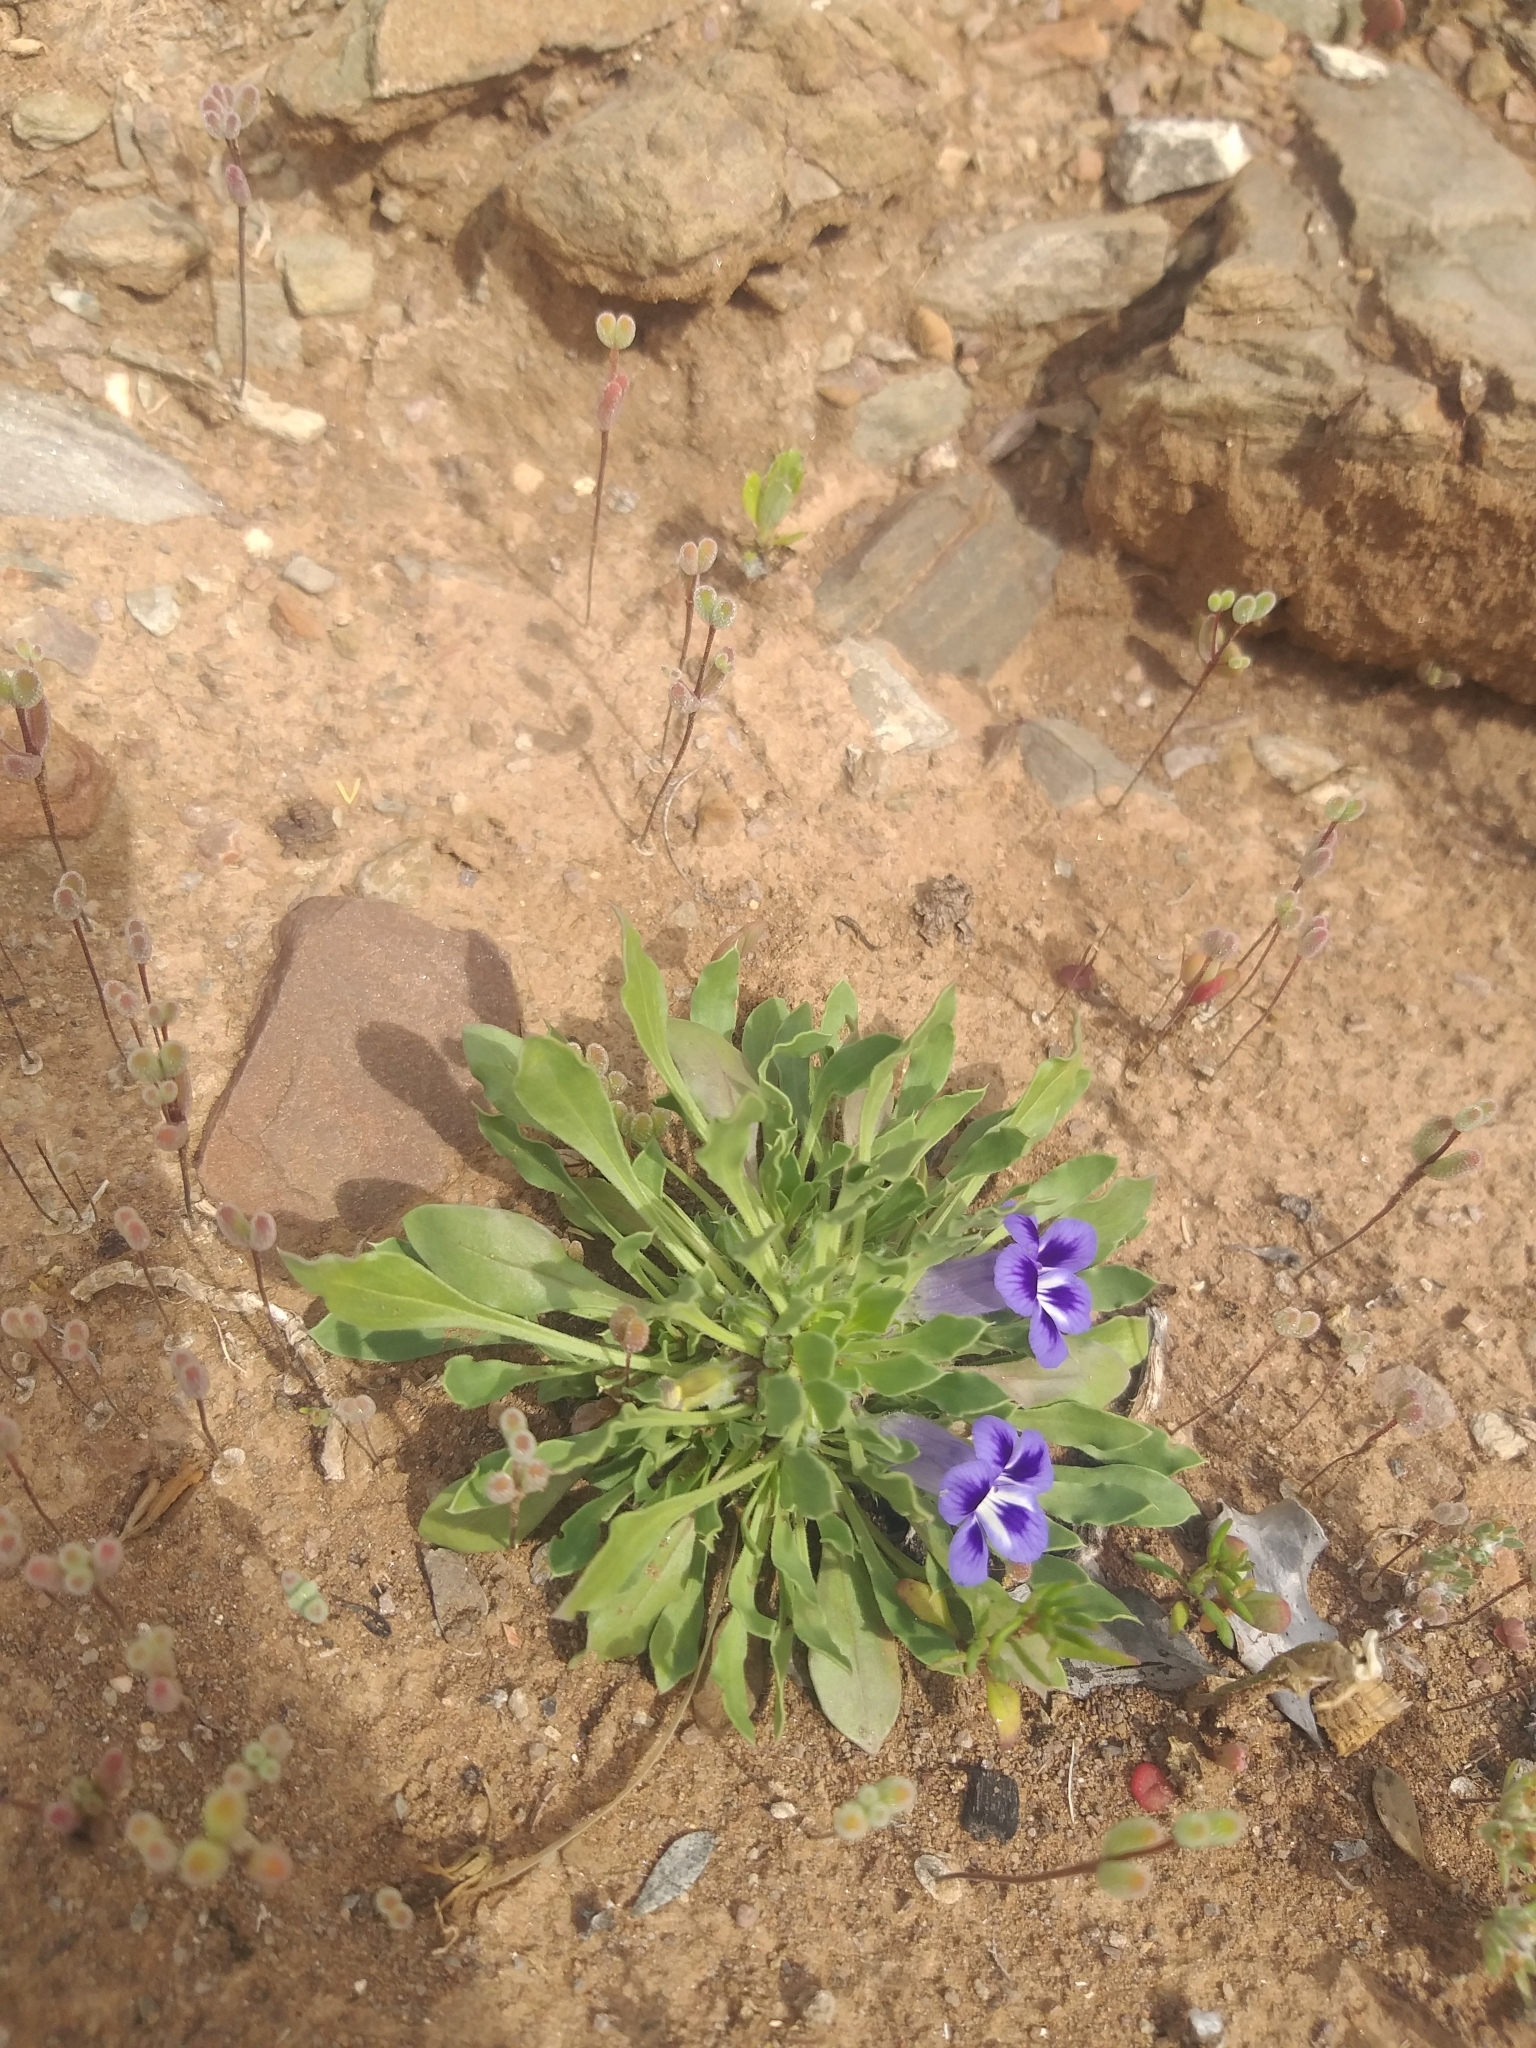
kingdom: Plantae
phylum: Tracheophyta
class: Magnoliopsida
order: Lamiales
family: Scrophulariaceae
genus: Aptosimum
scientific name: Aptosimum indivisum
